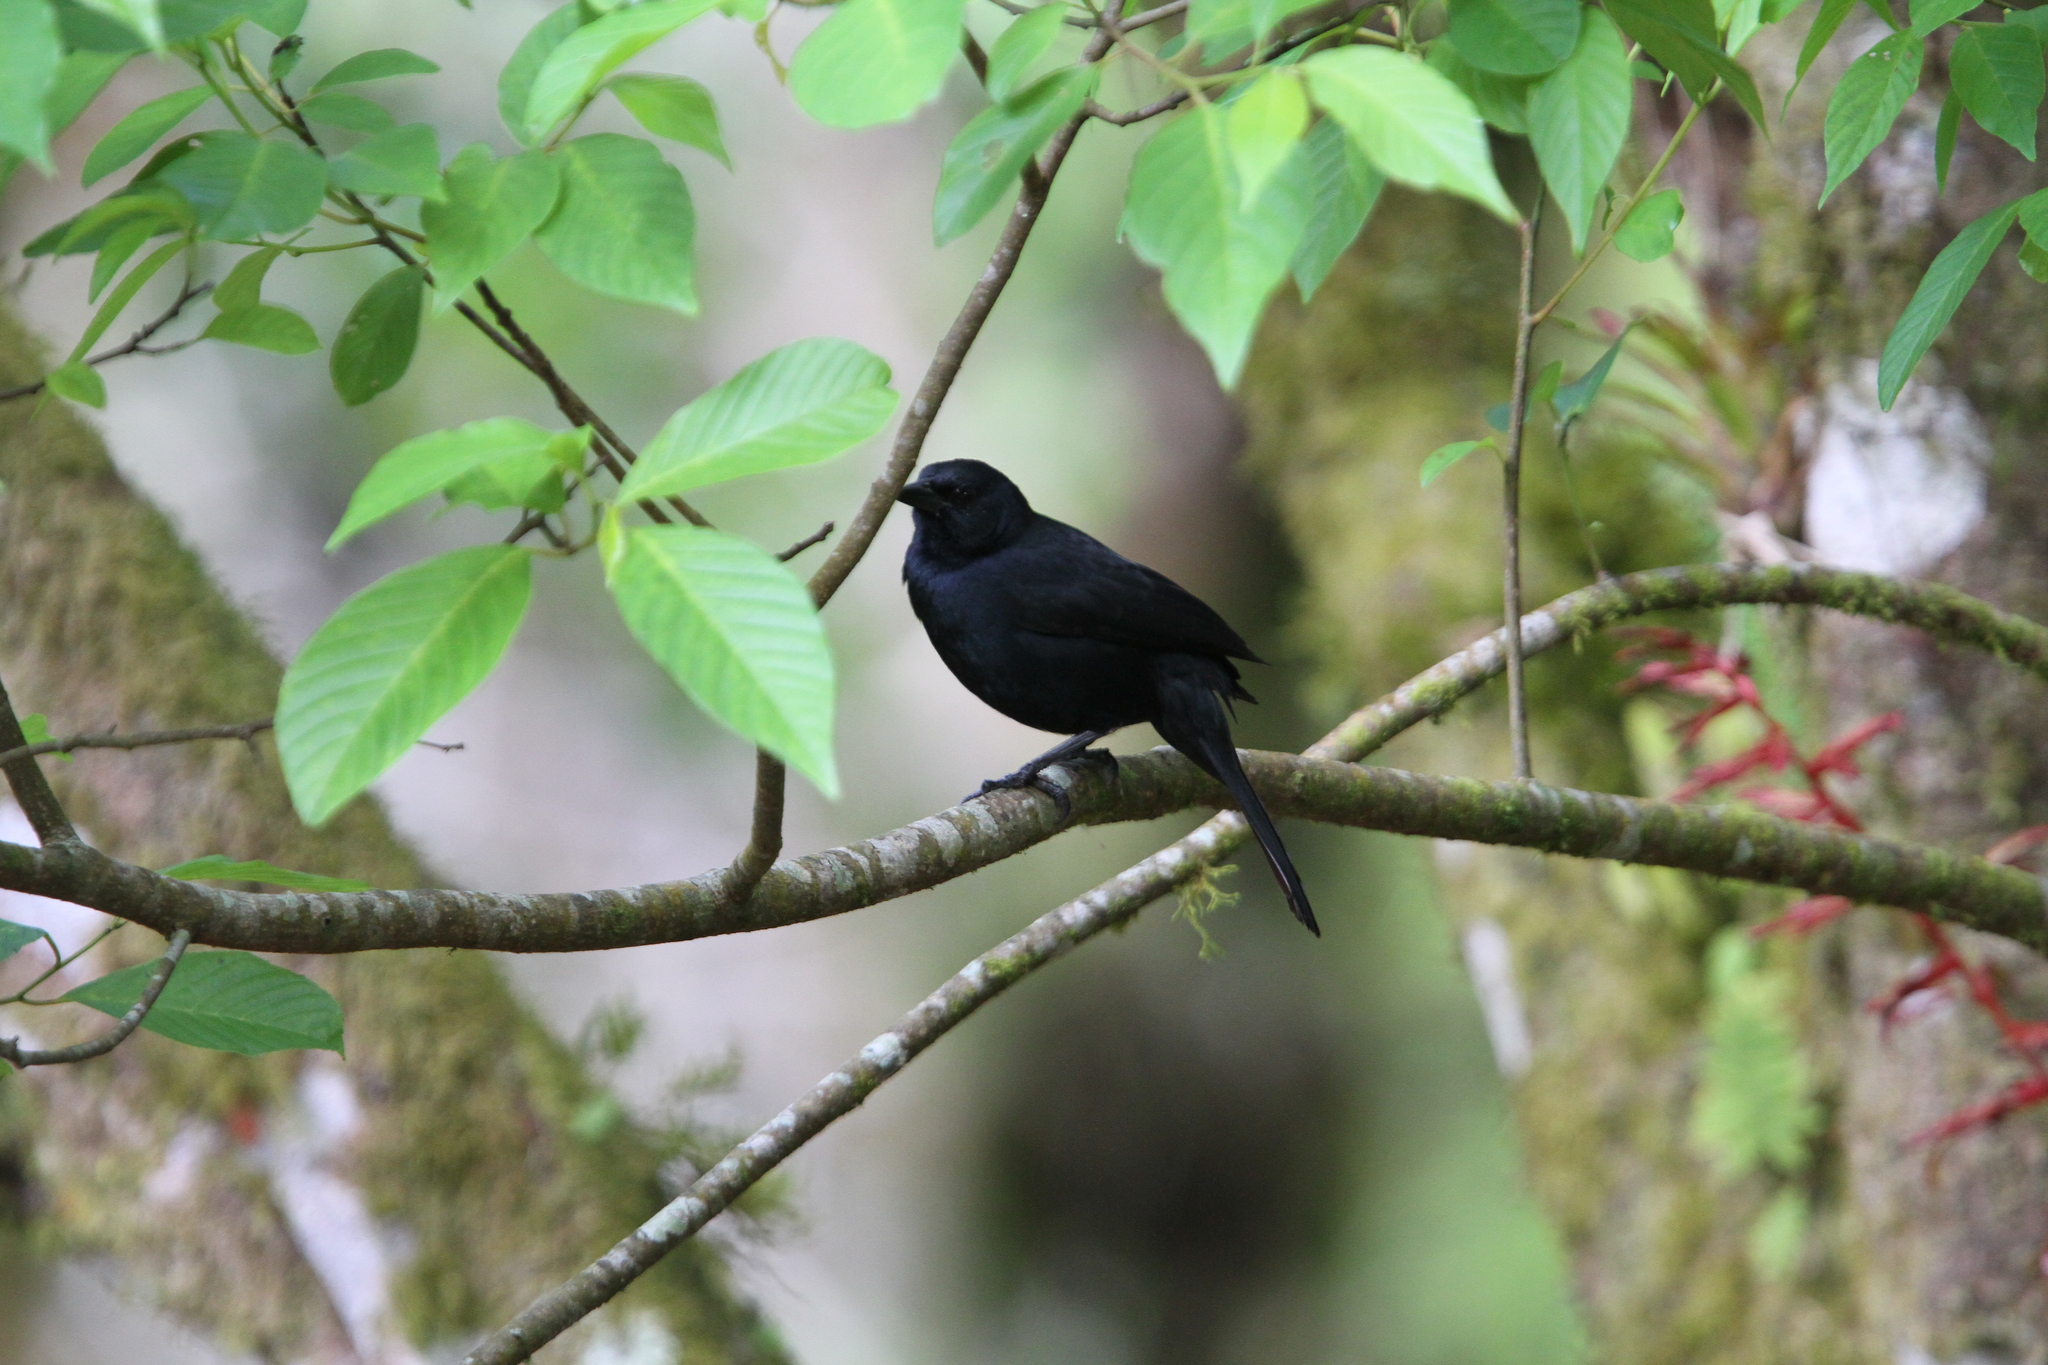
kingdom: Animalia
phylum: Chordata
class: Aves
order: Passeriformes
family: Icteridae
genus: Dives
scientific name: Dives dives
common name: Melodious blackbird
